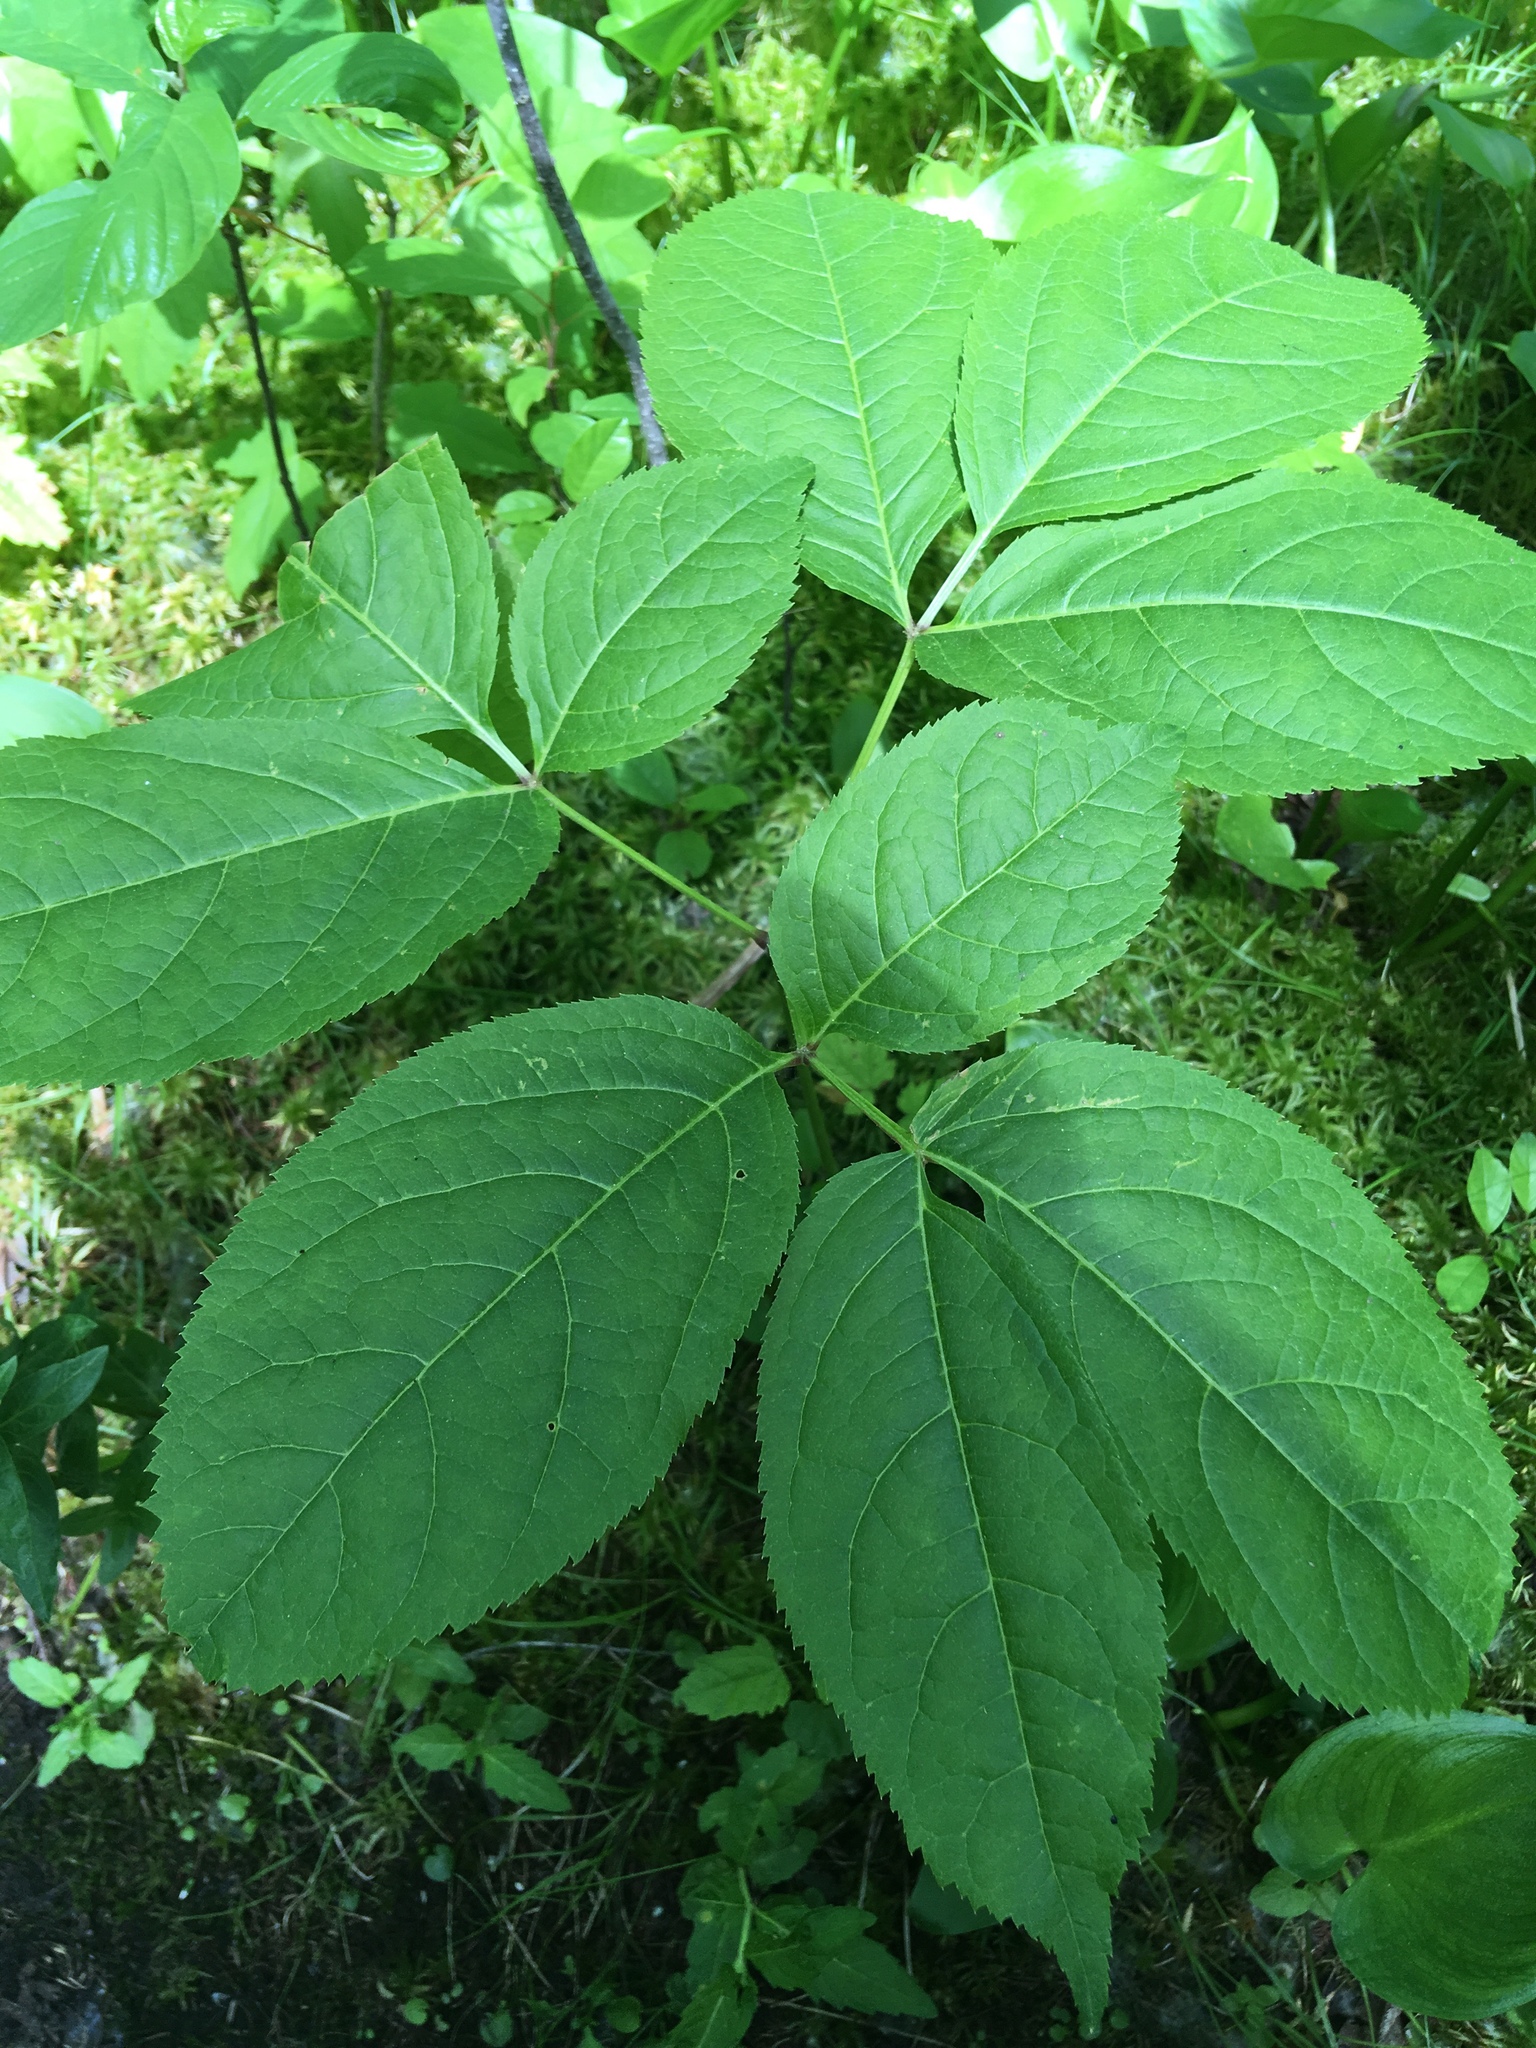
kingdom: Plantae
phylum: Tracheophyta
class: Magnoliopsida
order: Apiales
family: Araliaceae
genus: Aralia
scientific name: Aralia nudicaulis
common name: Wild sarsaparilla
